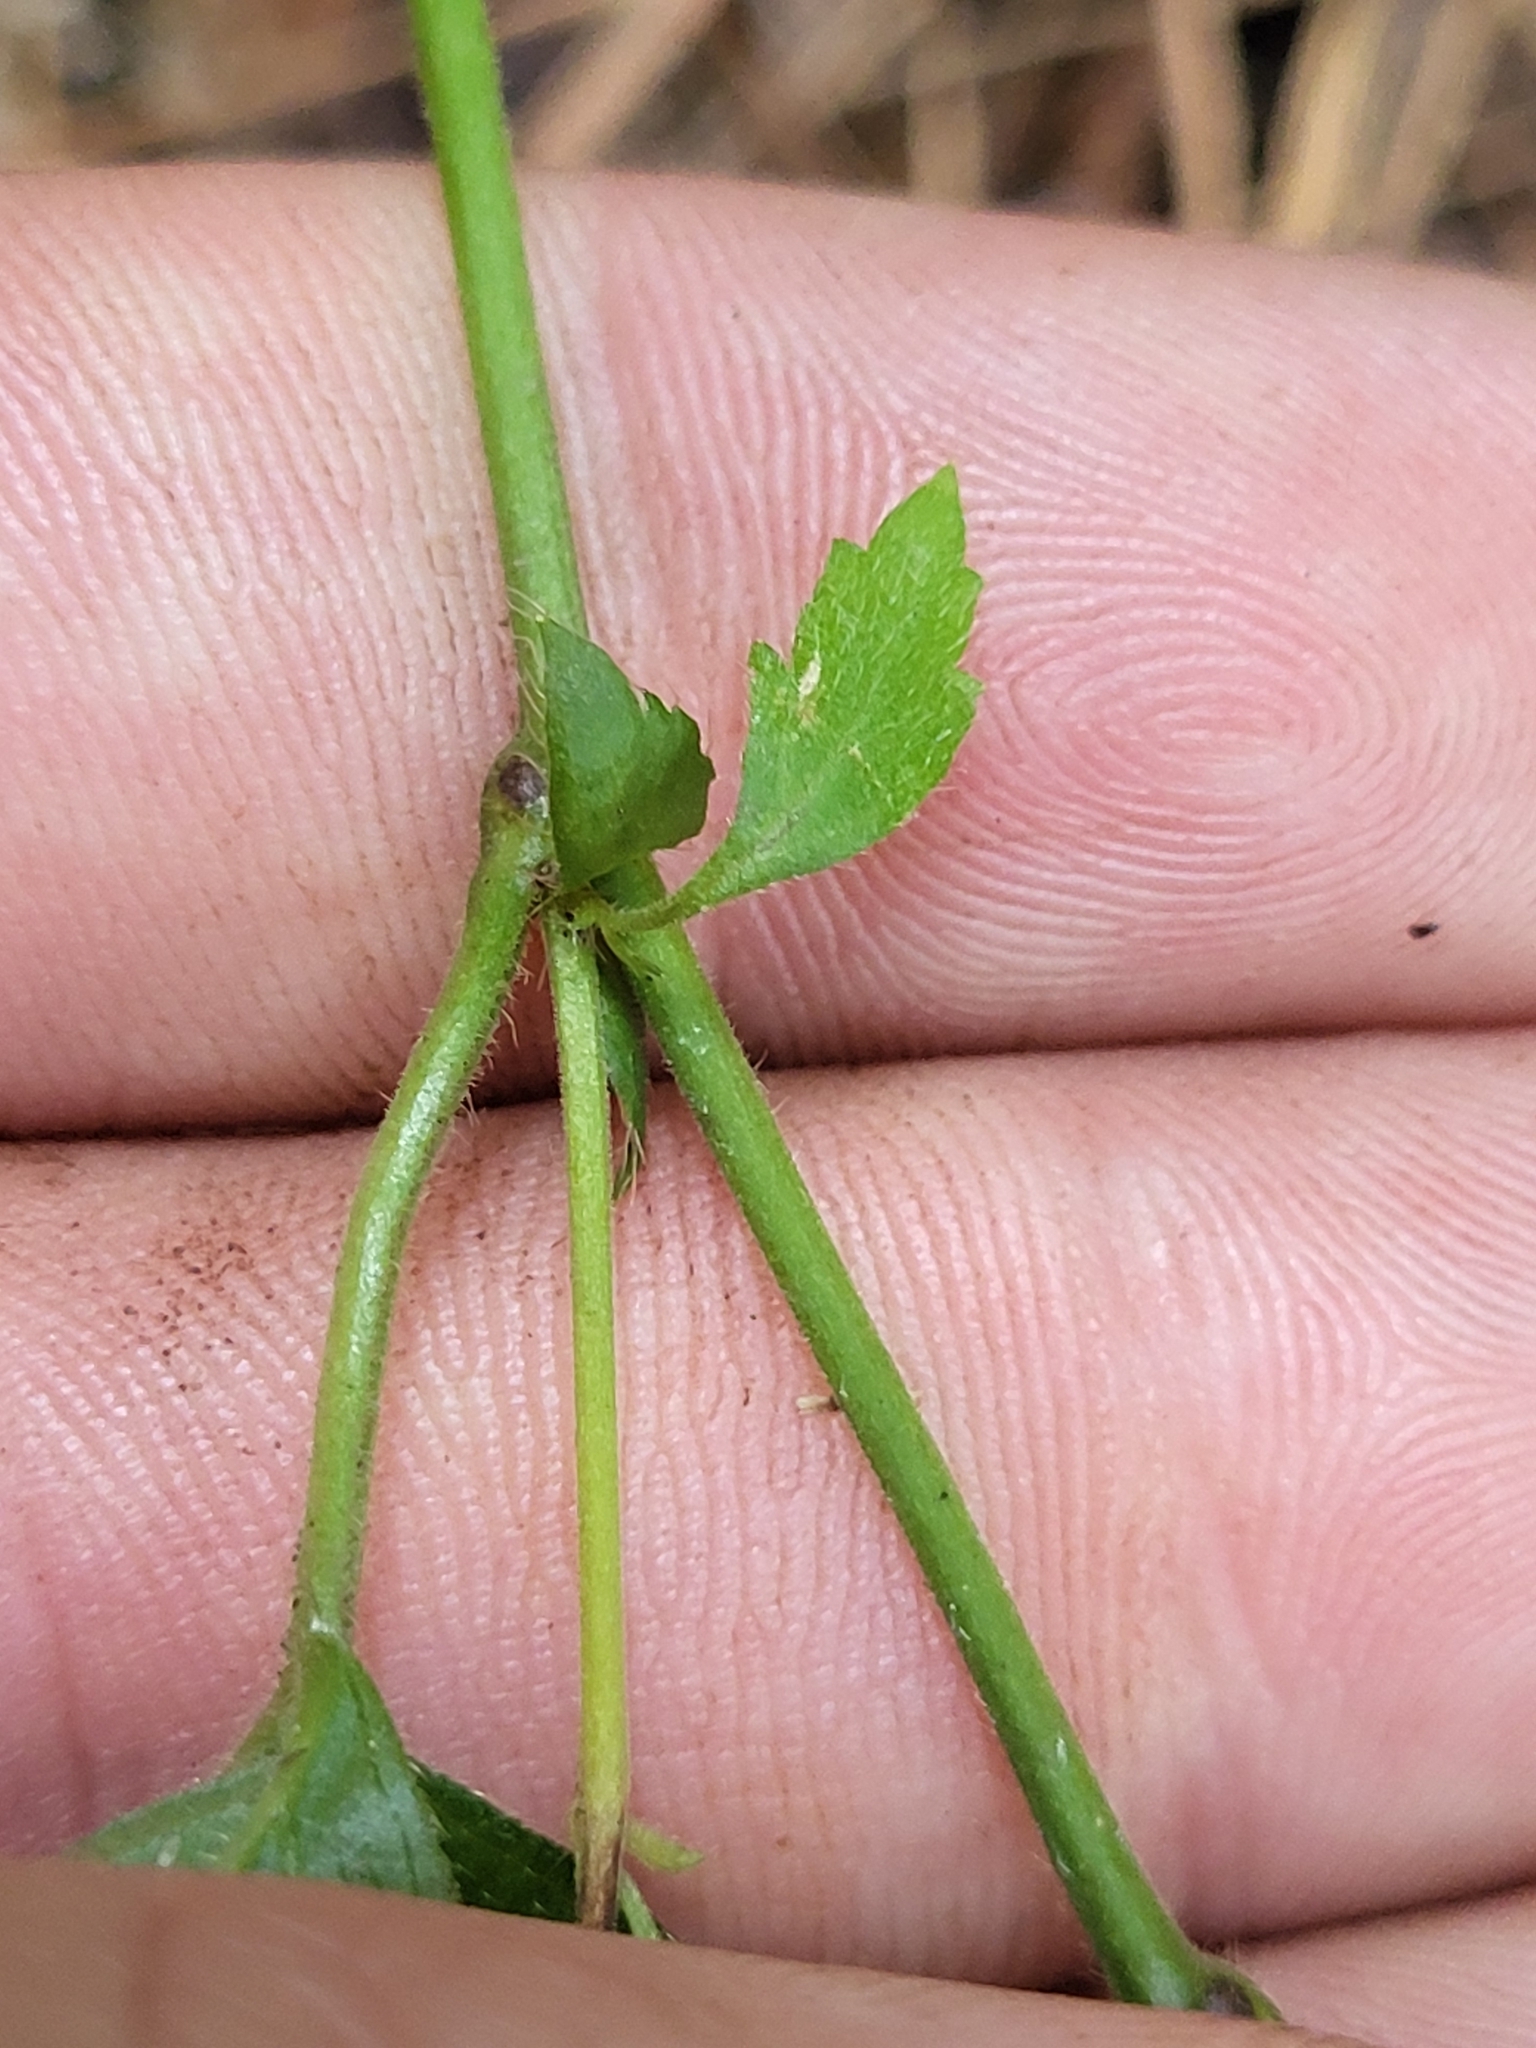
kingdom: Plantae
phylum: Tracheophyta
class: Magnoliopsida
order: Rosales
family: Rosaceae
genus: Geum
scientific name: Geum canadense
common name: White avens
